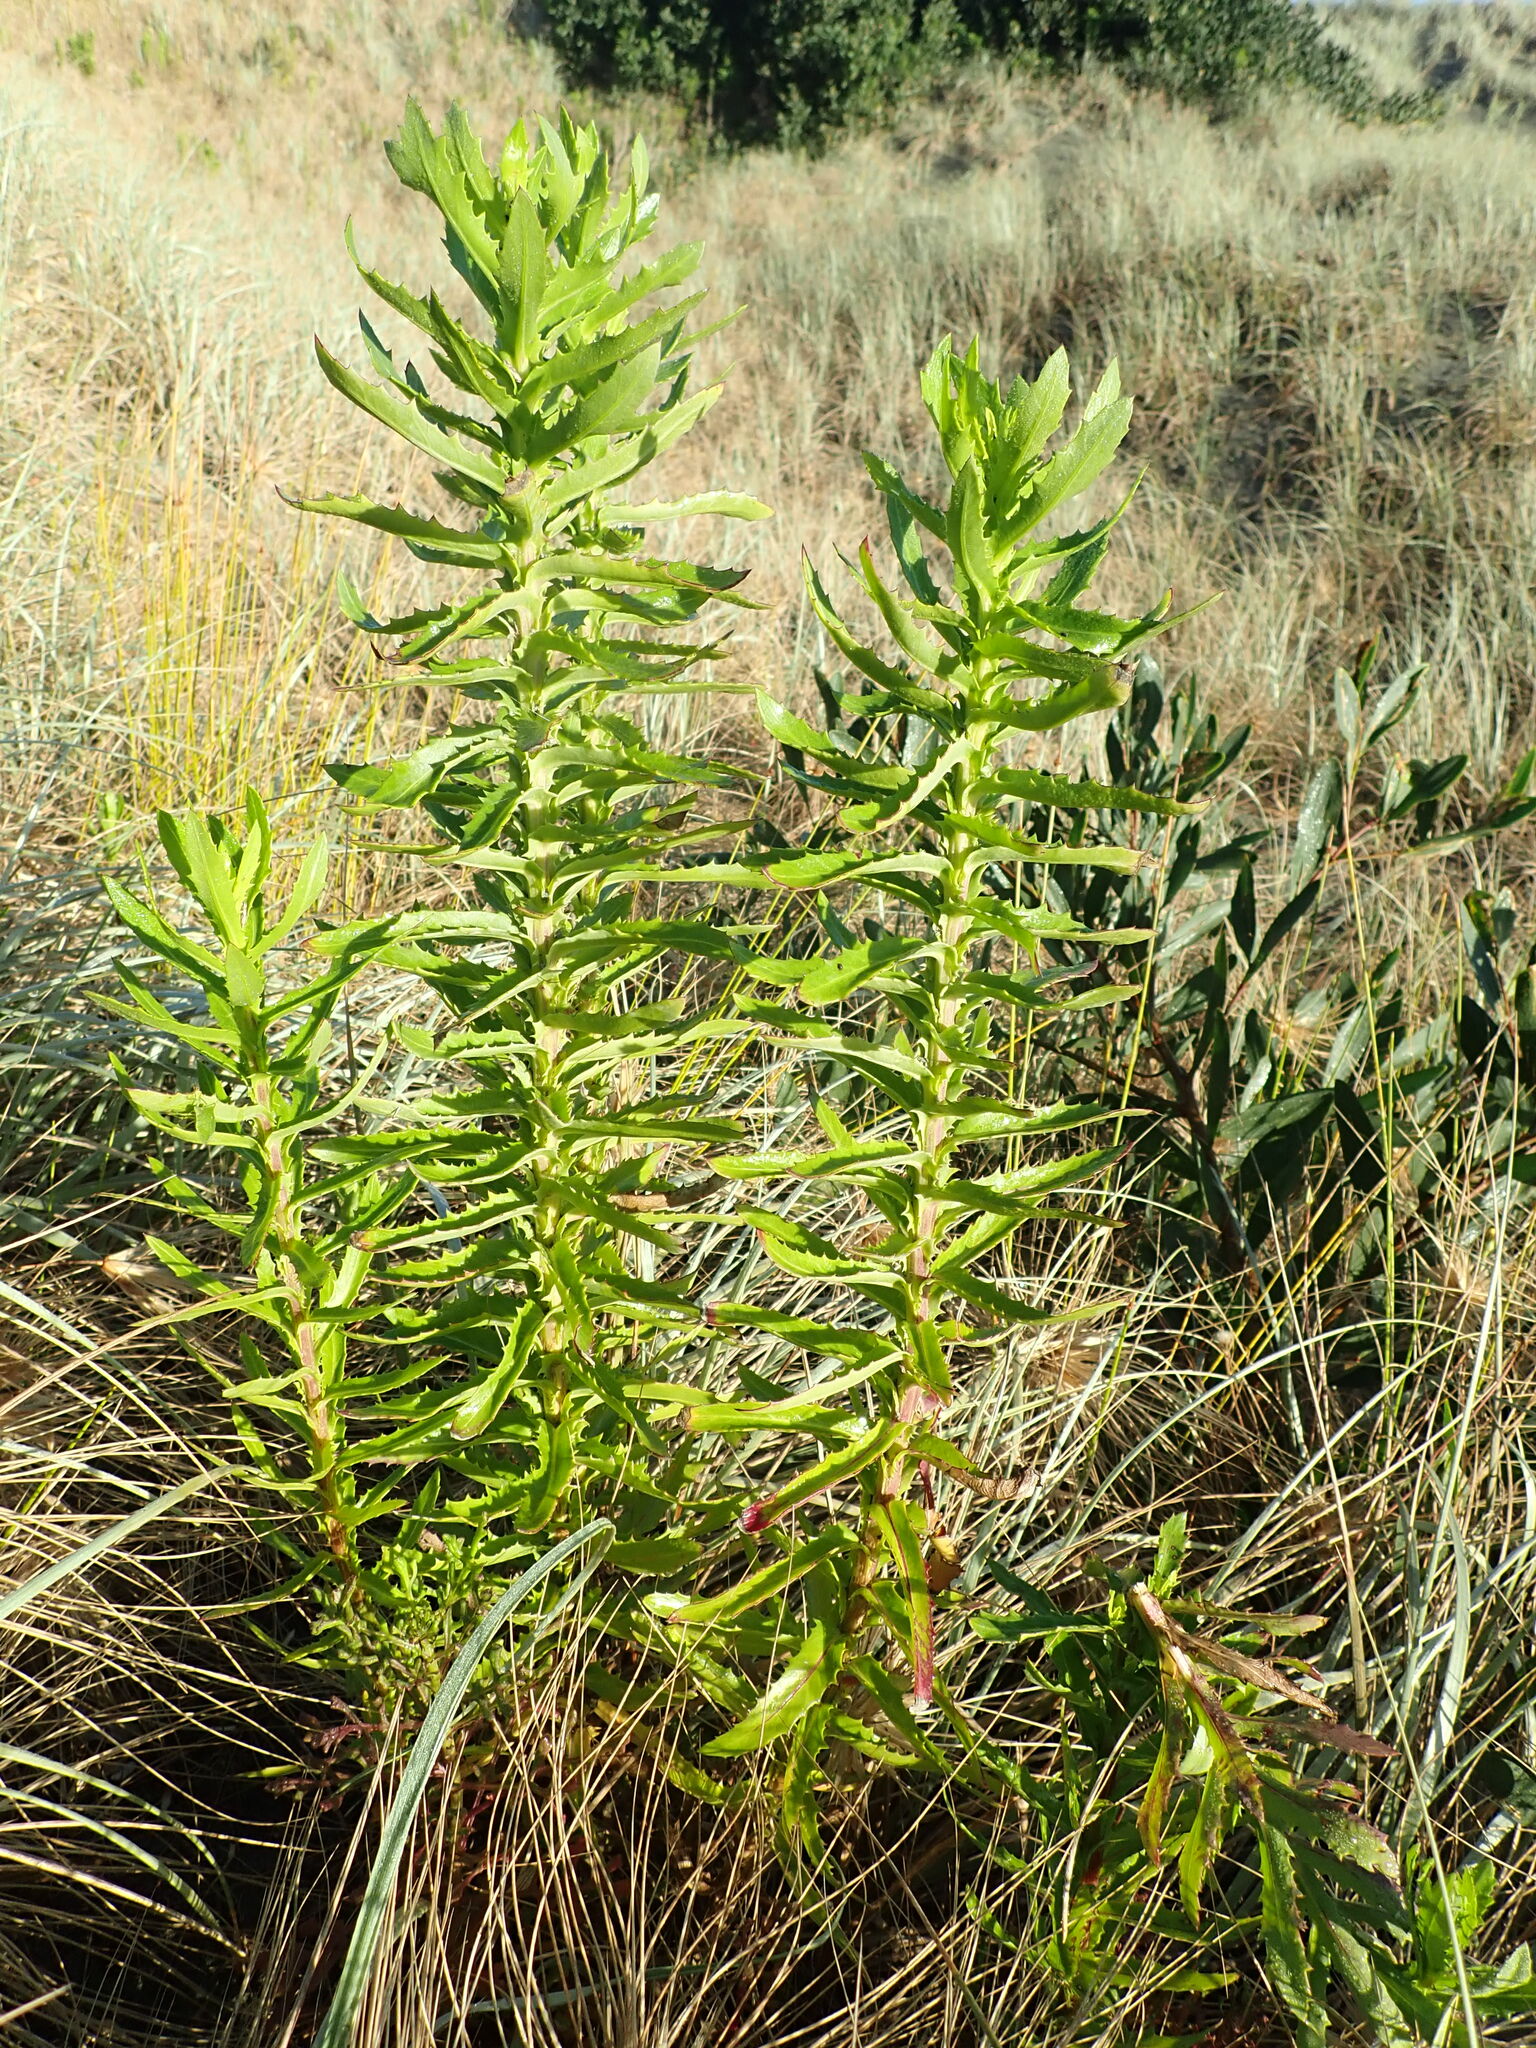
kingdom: Plantae
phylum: Tracheophyta
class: Magnoliopsida
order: Asterales
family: Asteraceae
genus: Senecio
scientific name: Senecio glastifolius
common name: Woad-leaved ragwort
